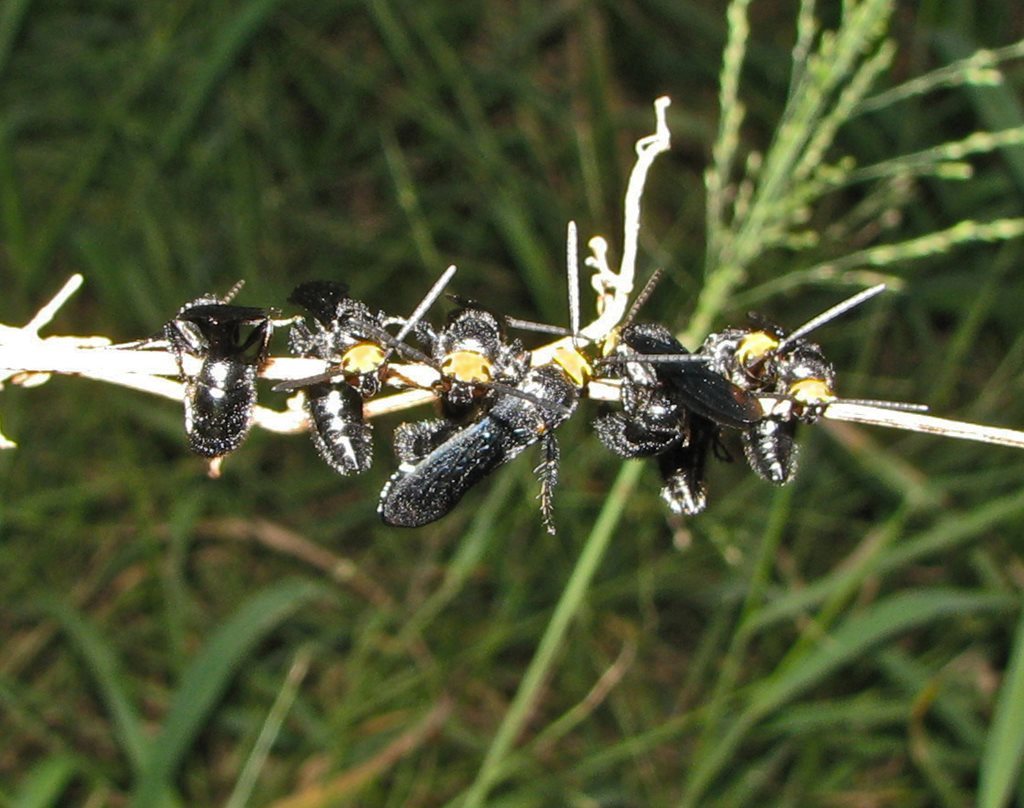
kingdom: Animalia
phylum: Arthropoda
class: Insecta
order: Hymenoptera
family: Scoliidae
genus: Scolia
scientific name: Scolia verticalis
